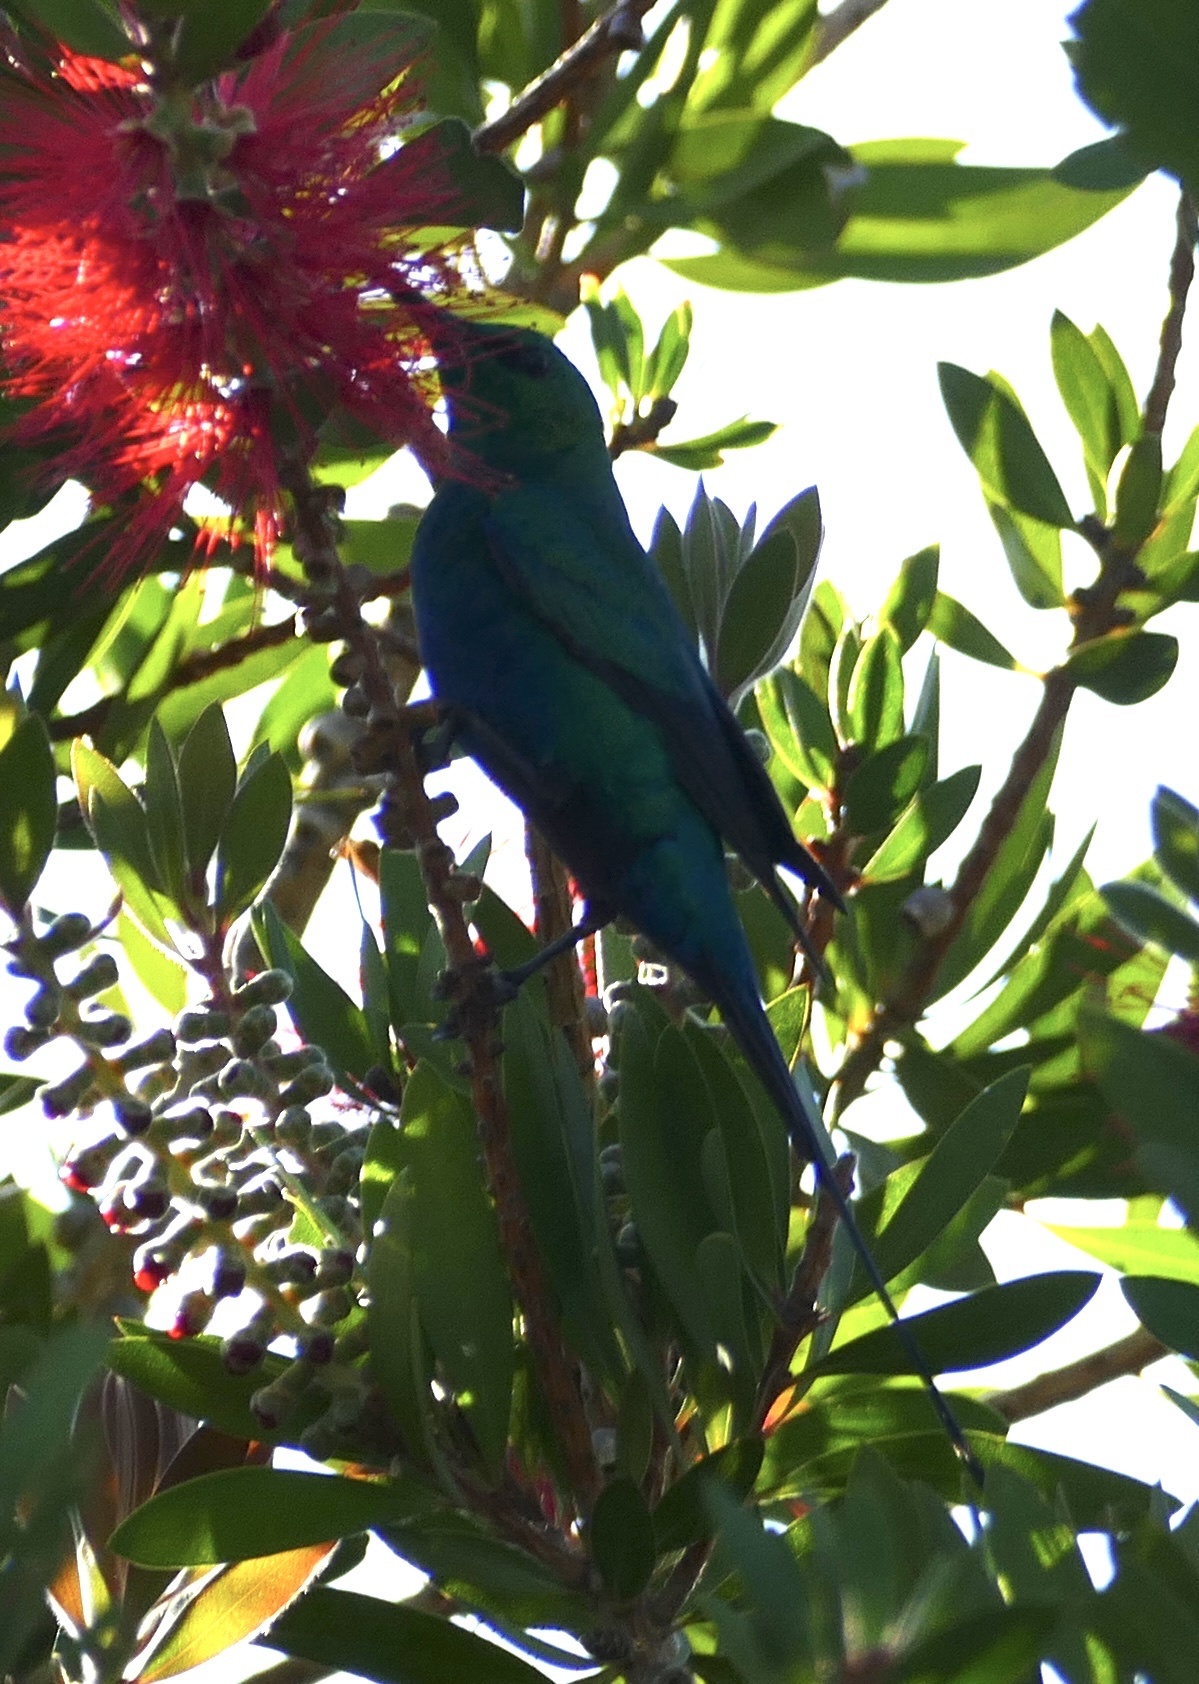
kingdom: Animalia
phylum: Chordata
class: Aves
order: Passeriformes
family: Nectariniidae
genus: Nectarinia
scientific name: Nectarinia famosa
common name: Malachite sunbird
